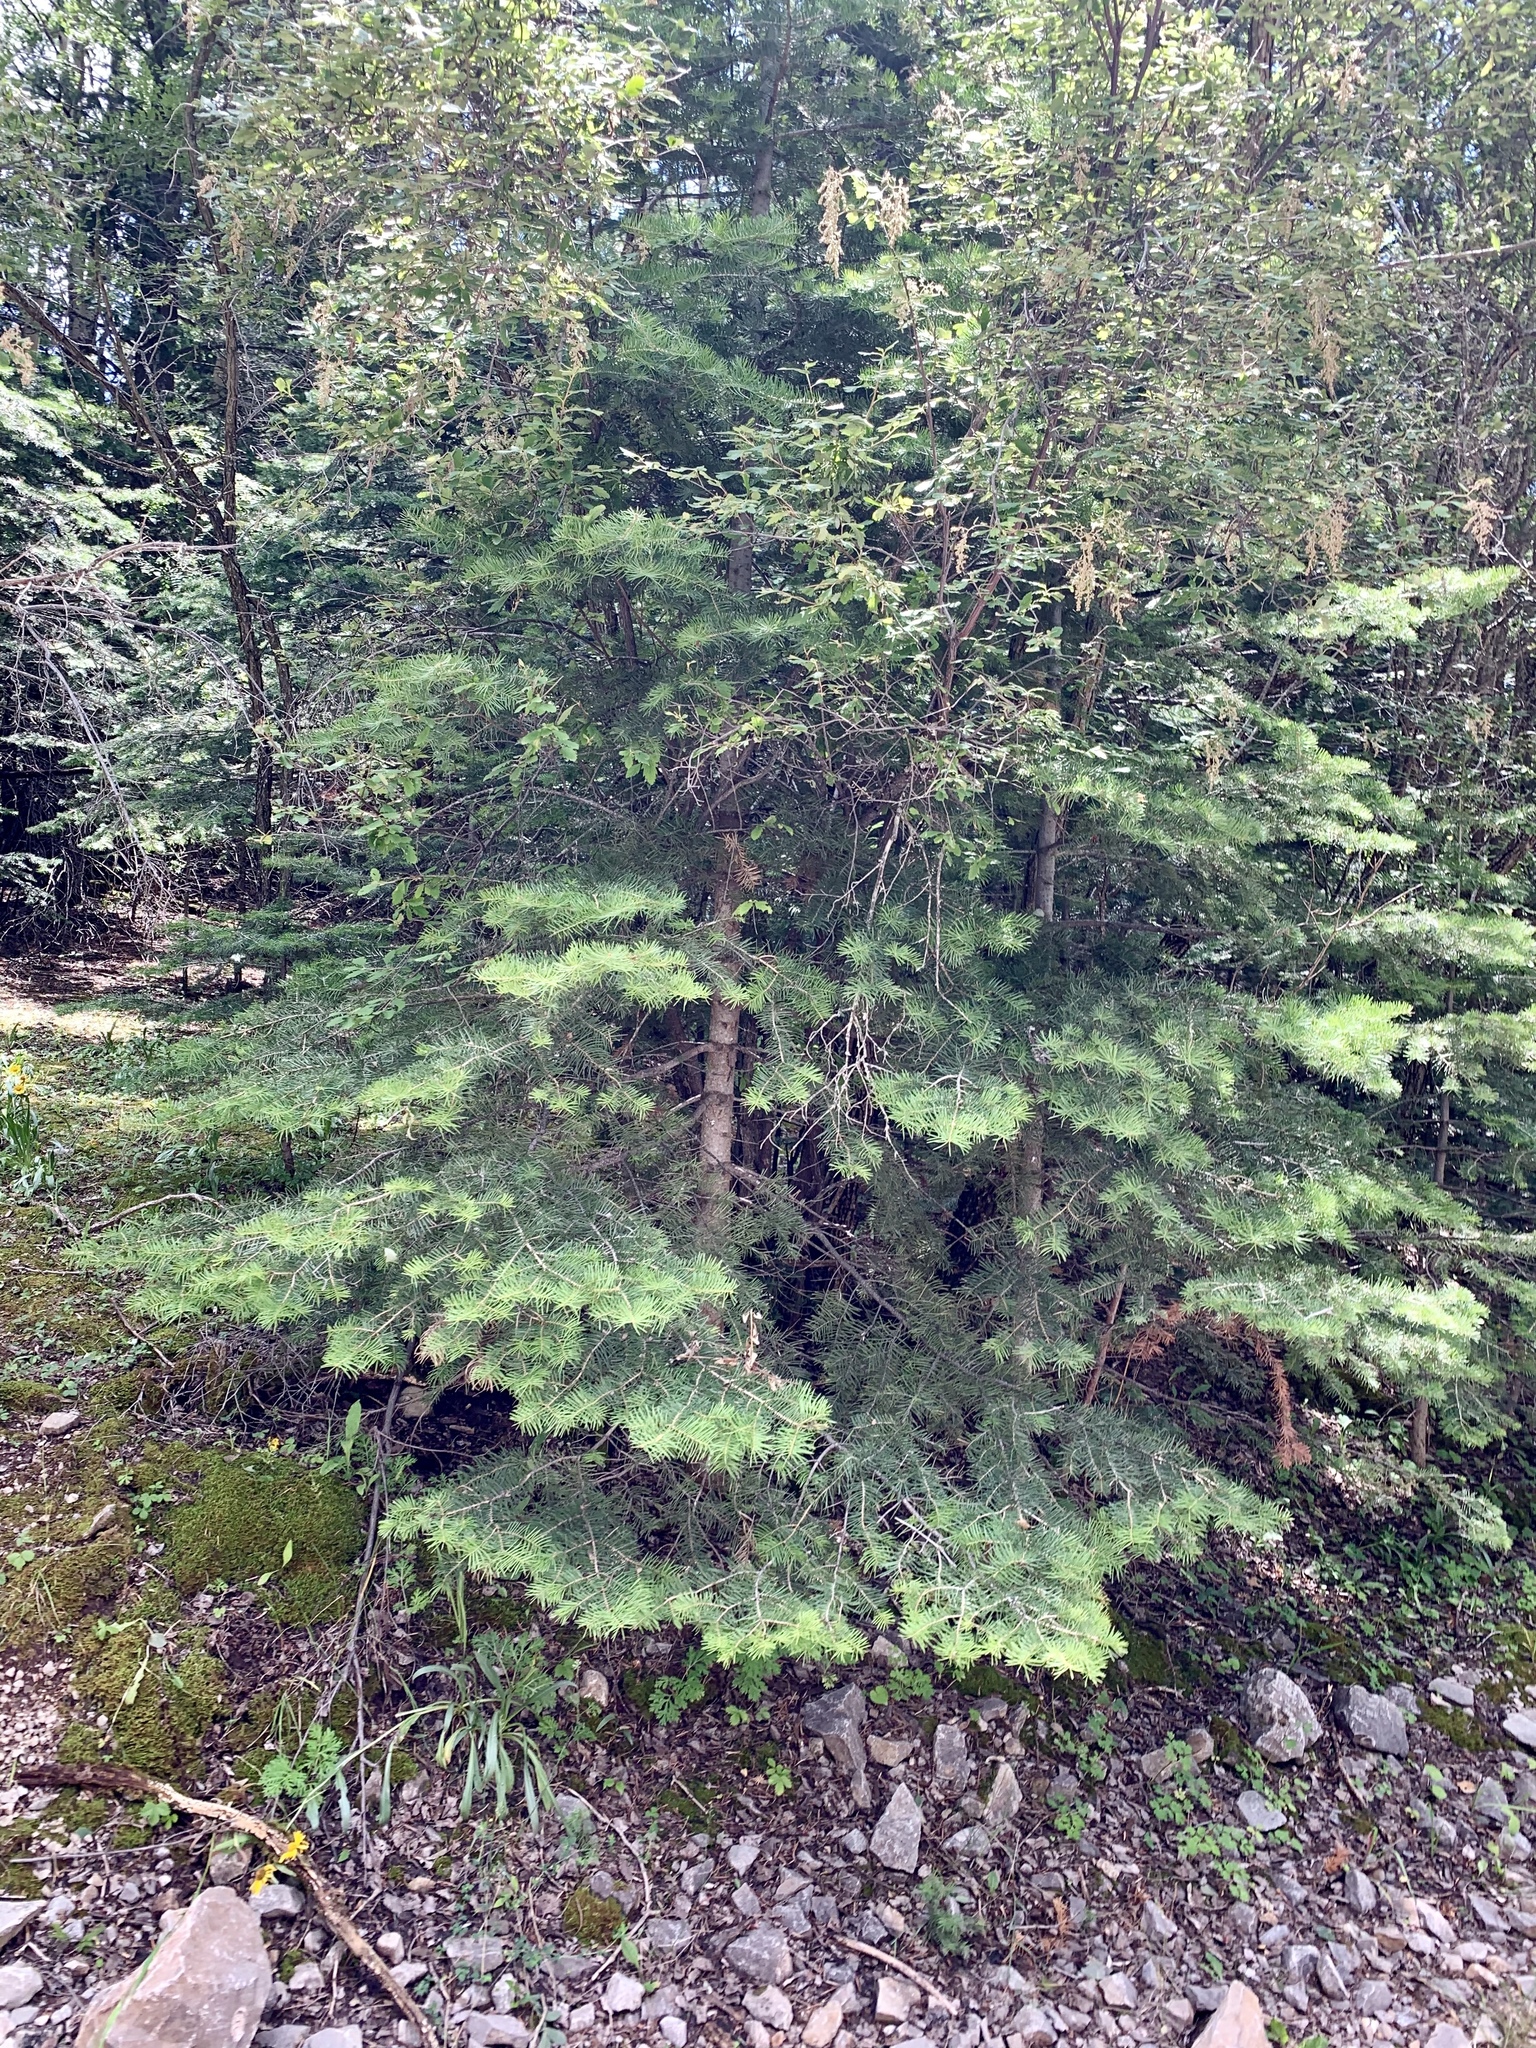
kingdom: Plantae
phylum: Tracheophyta
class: Pinopsida
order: Pinales
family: Pinaceae
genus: Abies
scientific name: Abies concolor
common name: Colorado fir
